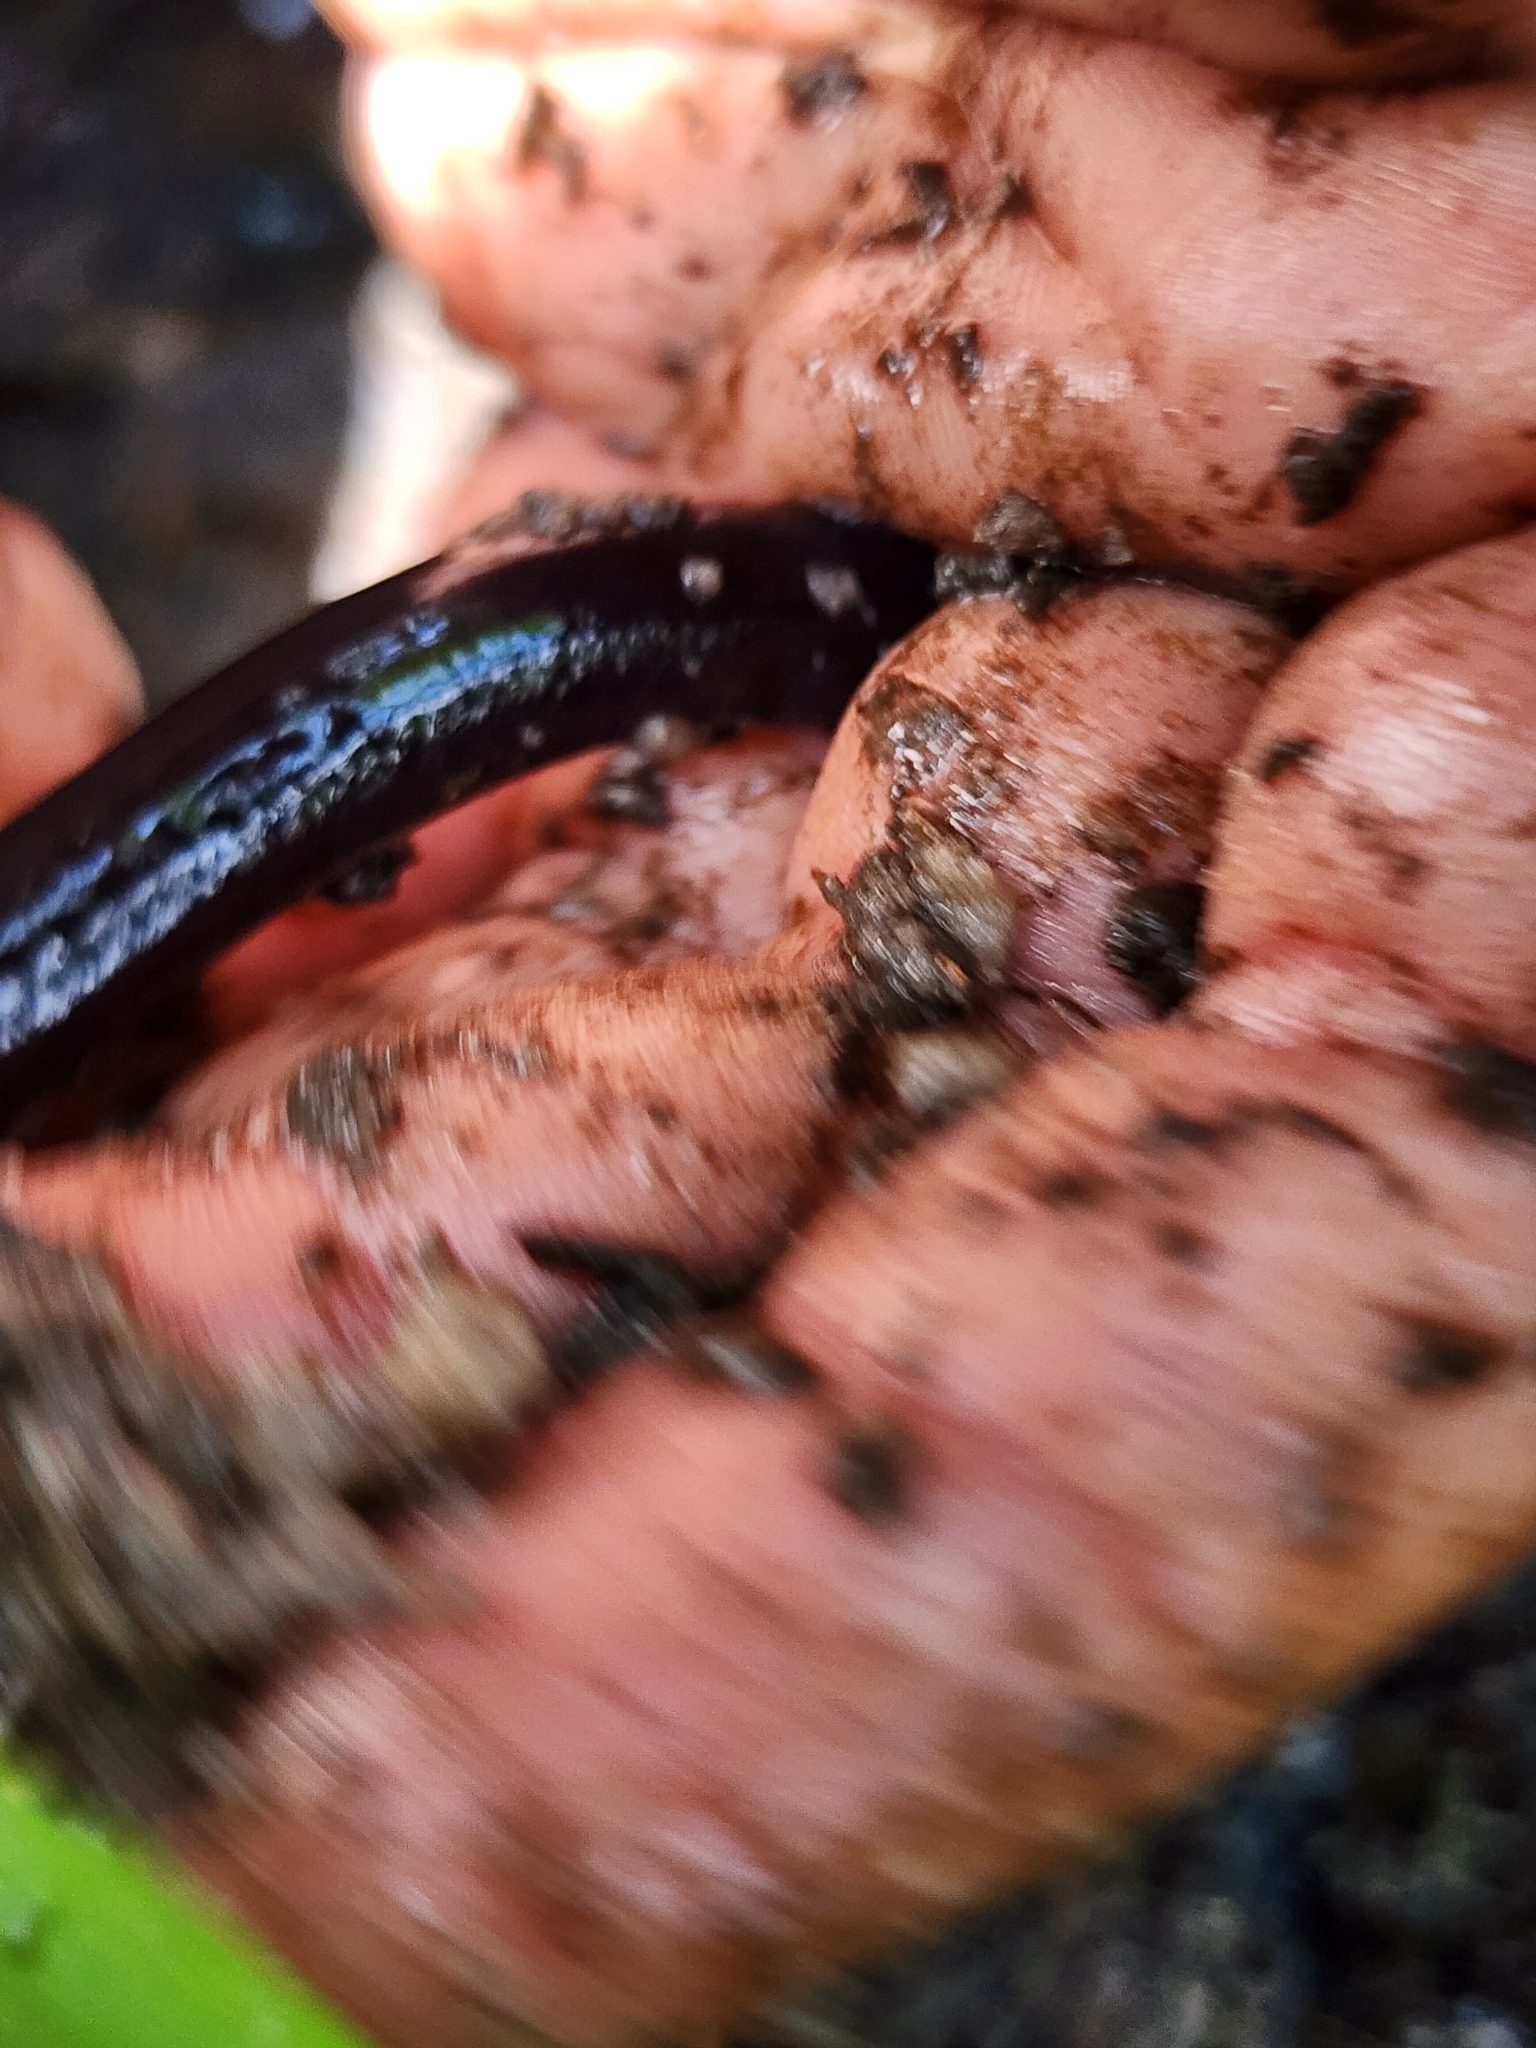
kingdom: Animalia
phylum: Chordata
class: Amphibia
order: Caudata
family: Amphiumidae
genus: Amphiuma
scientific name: Amphiuma pholeter
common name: One-toed amphiuma
